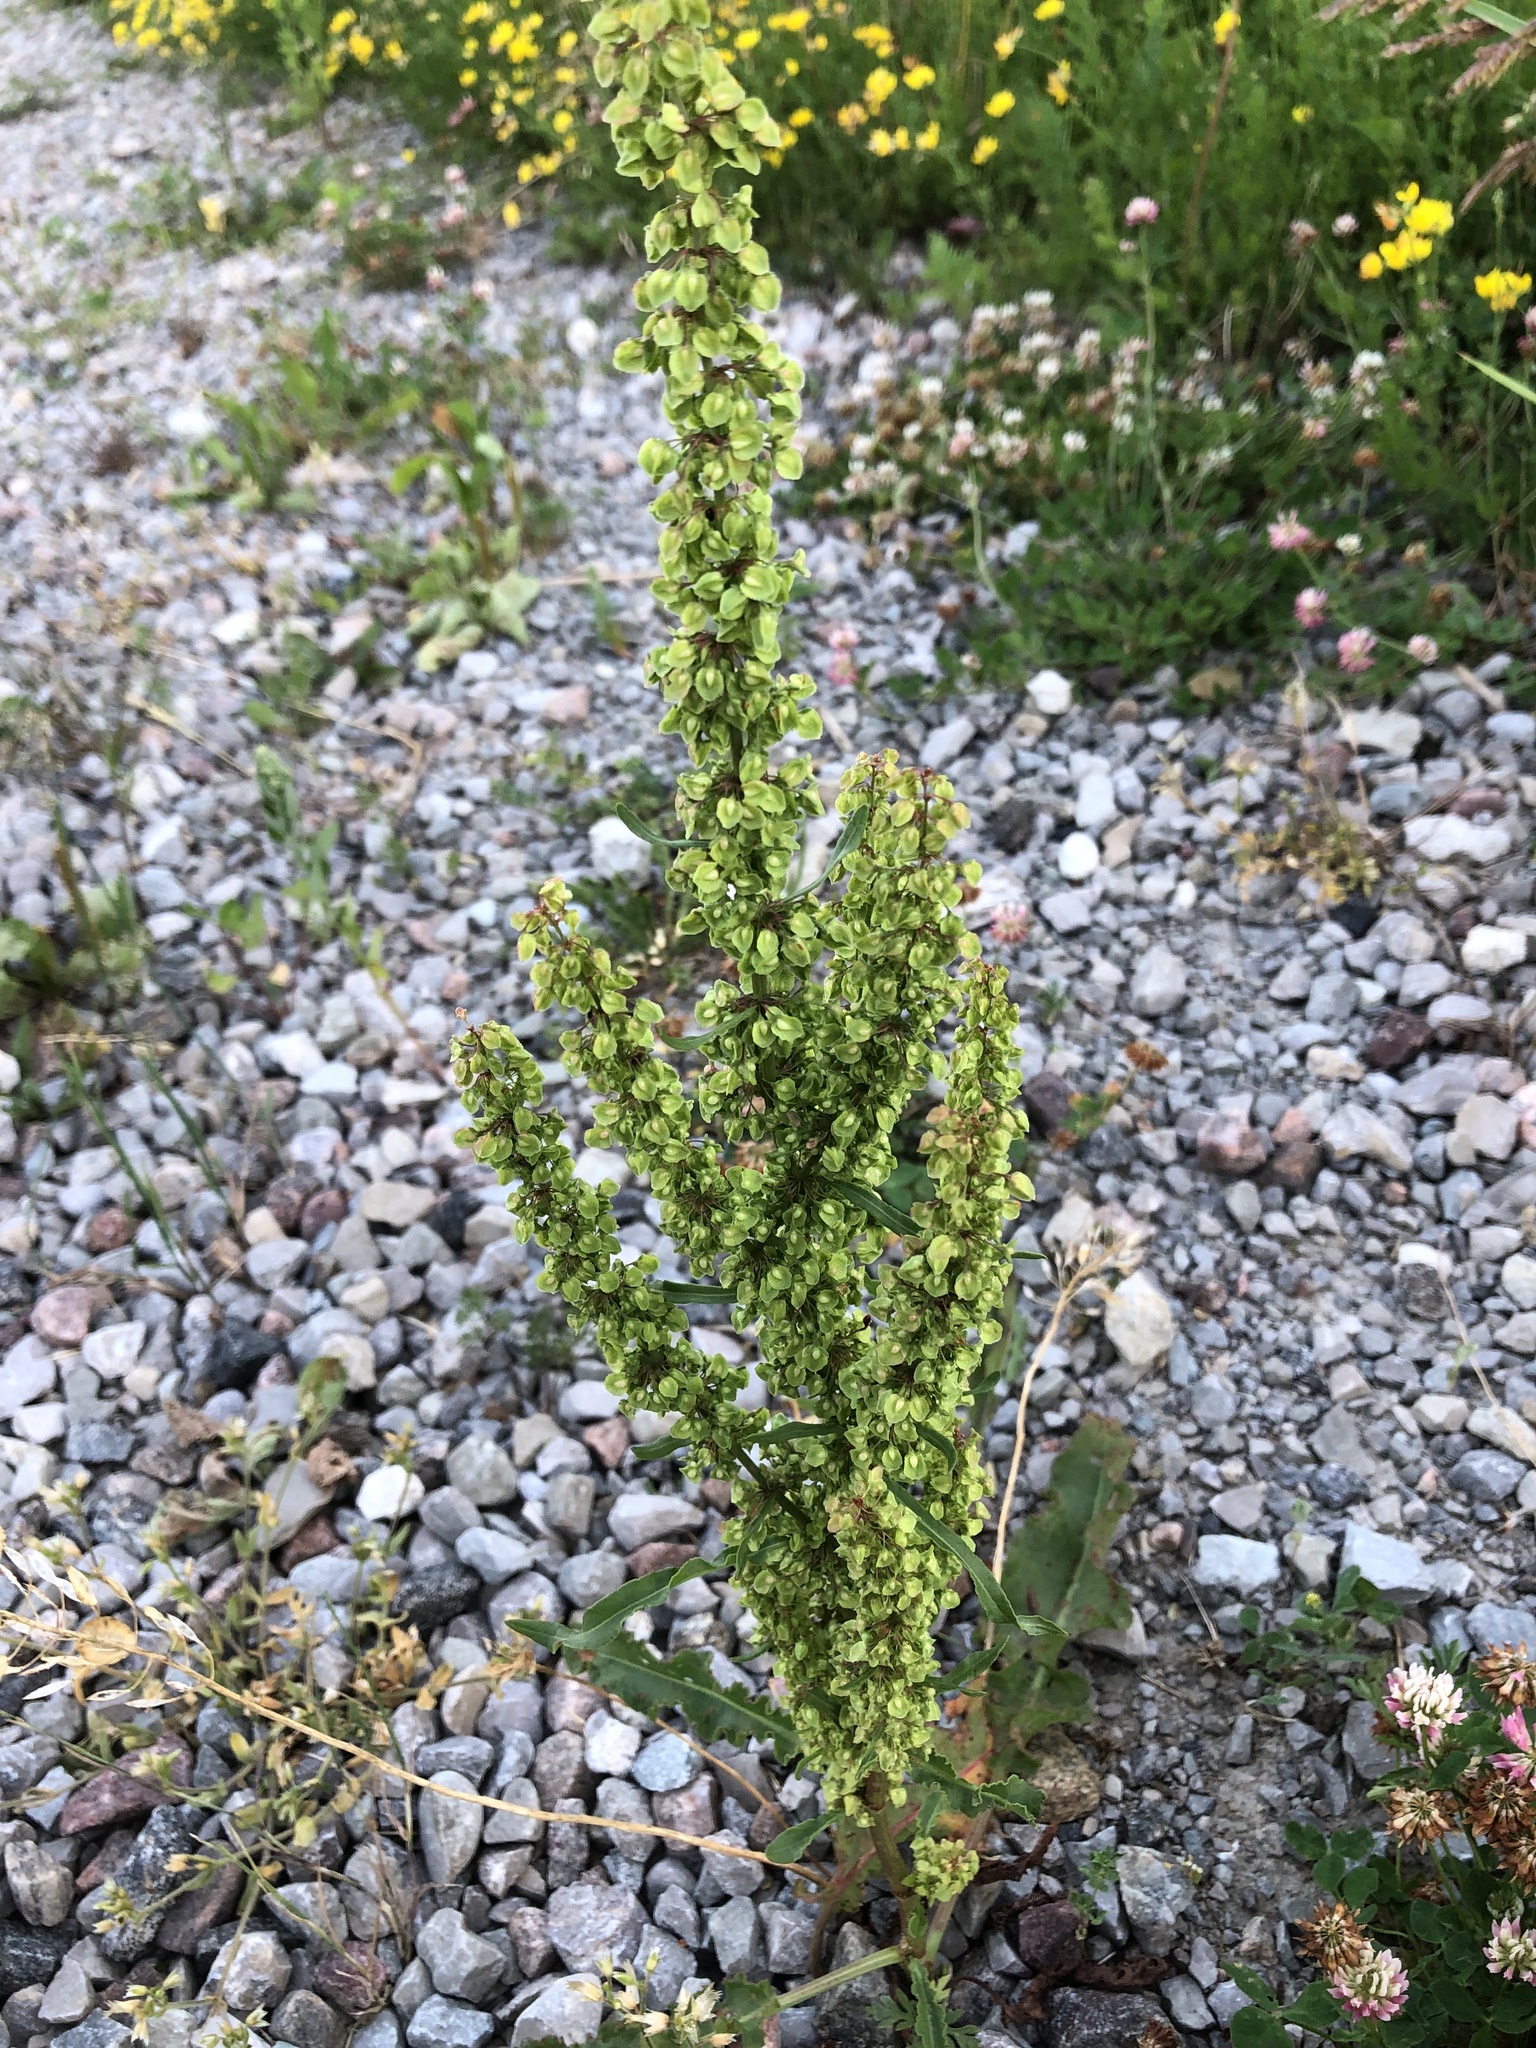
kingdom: Plantae
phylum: Tracheophyta
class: Magnoliopsida
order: Caryophyllales
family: Polygonaceae
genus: Rumex
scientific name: Rumex crispus
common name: Curled dock
